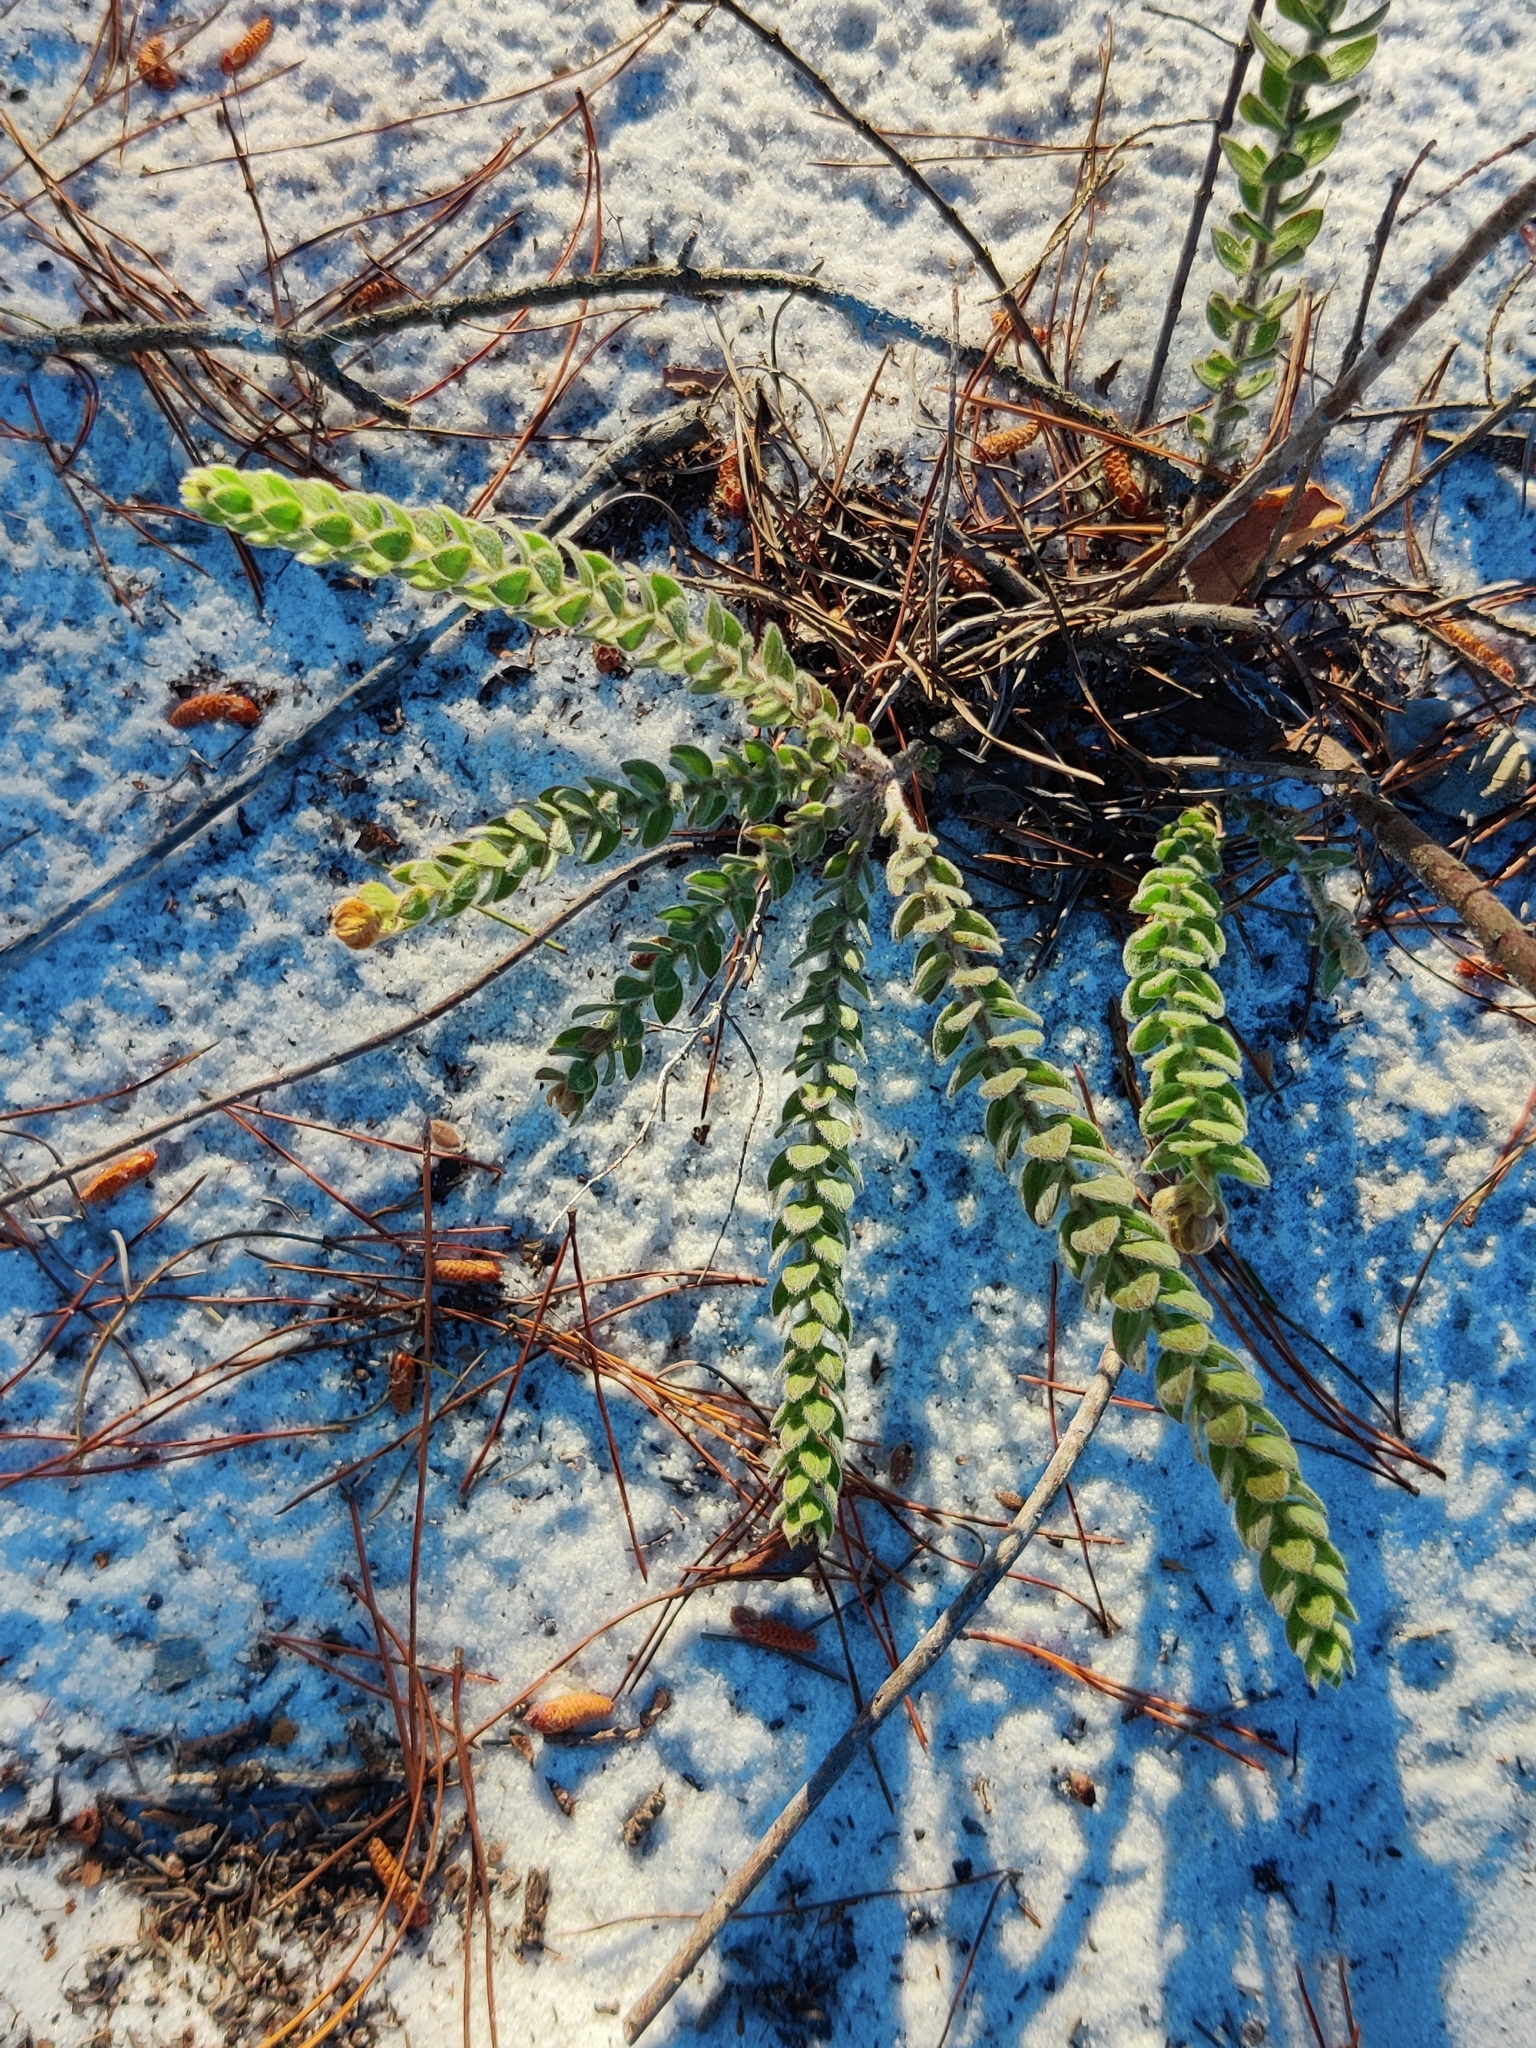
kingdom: Plantae
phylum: Tracheophyta
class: Magnoliopsida
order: Malvales
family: Cistaceae
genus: Lechea
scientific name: Lechea cernua
